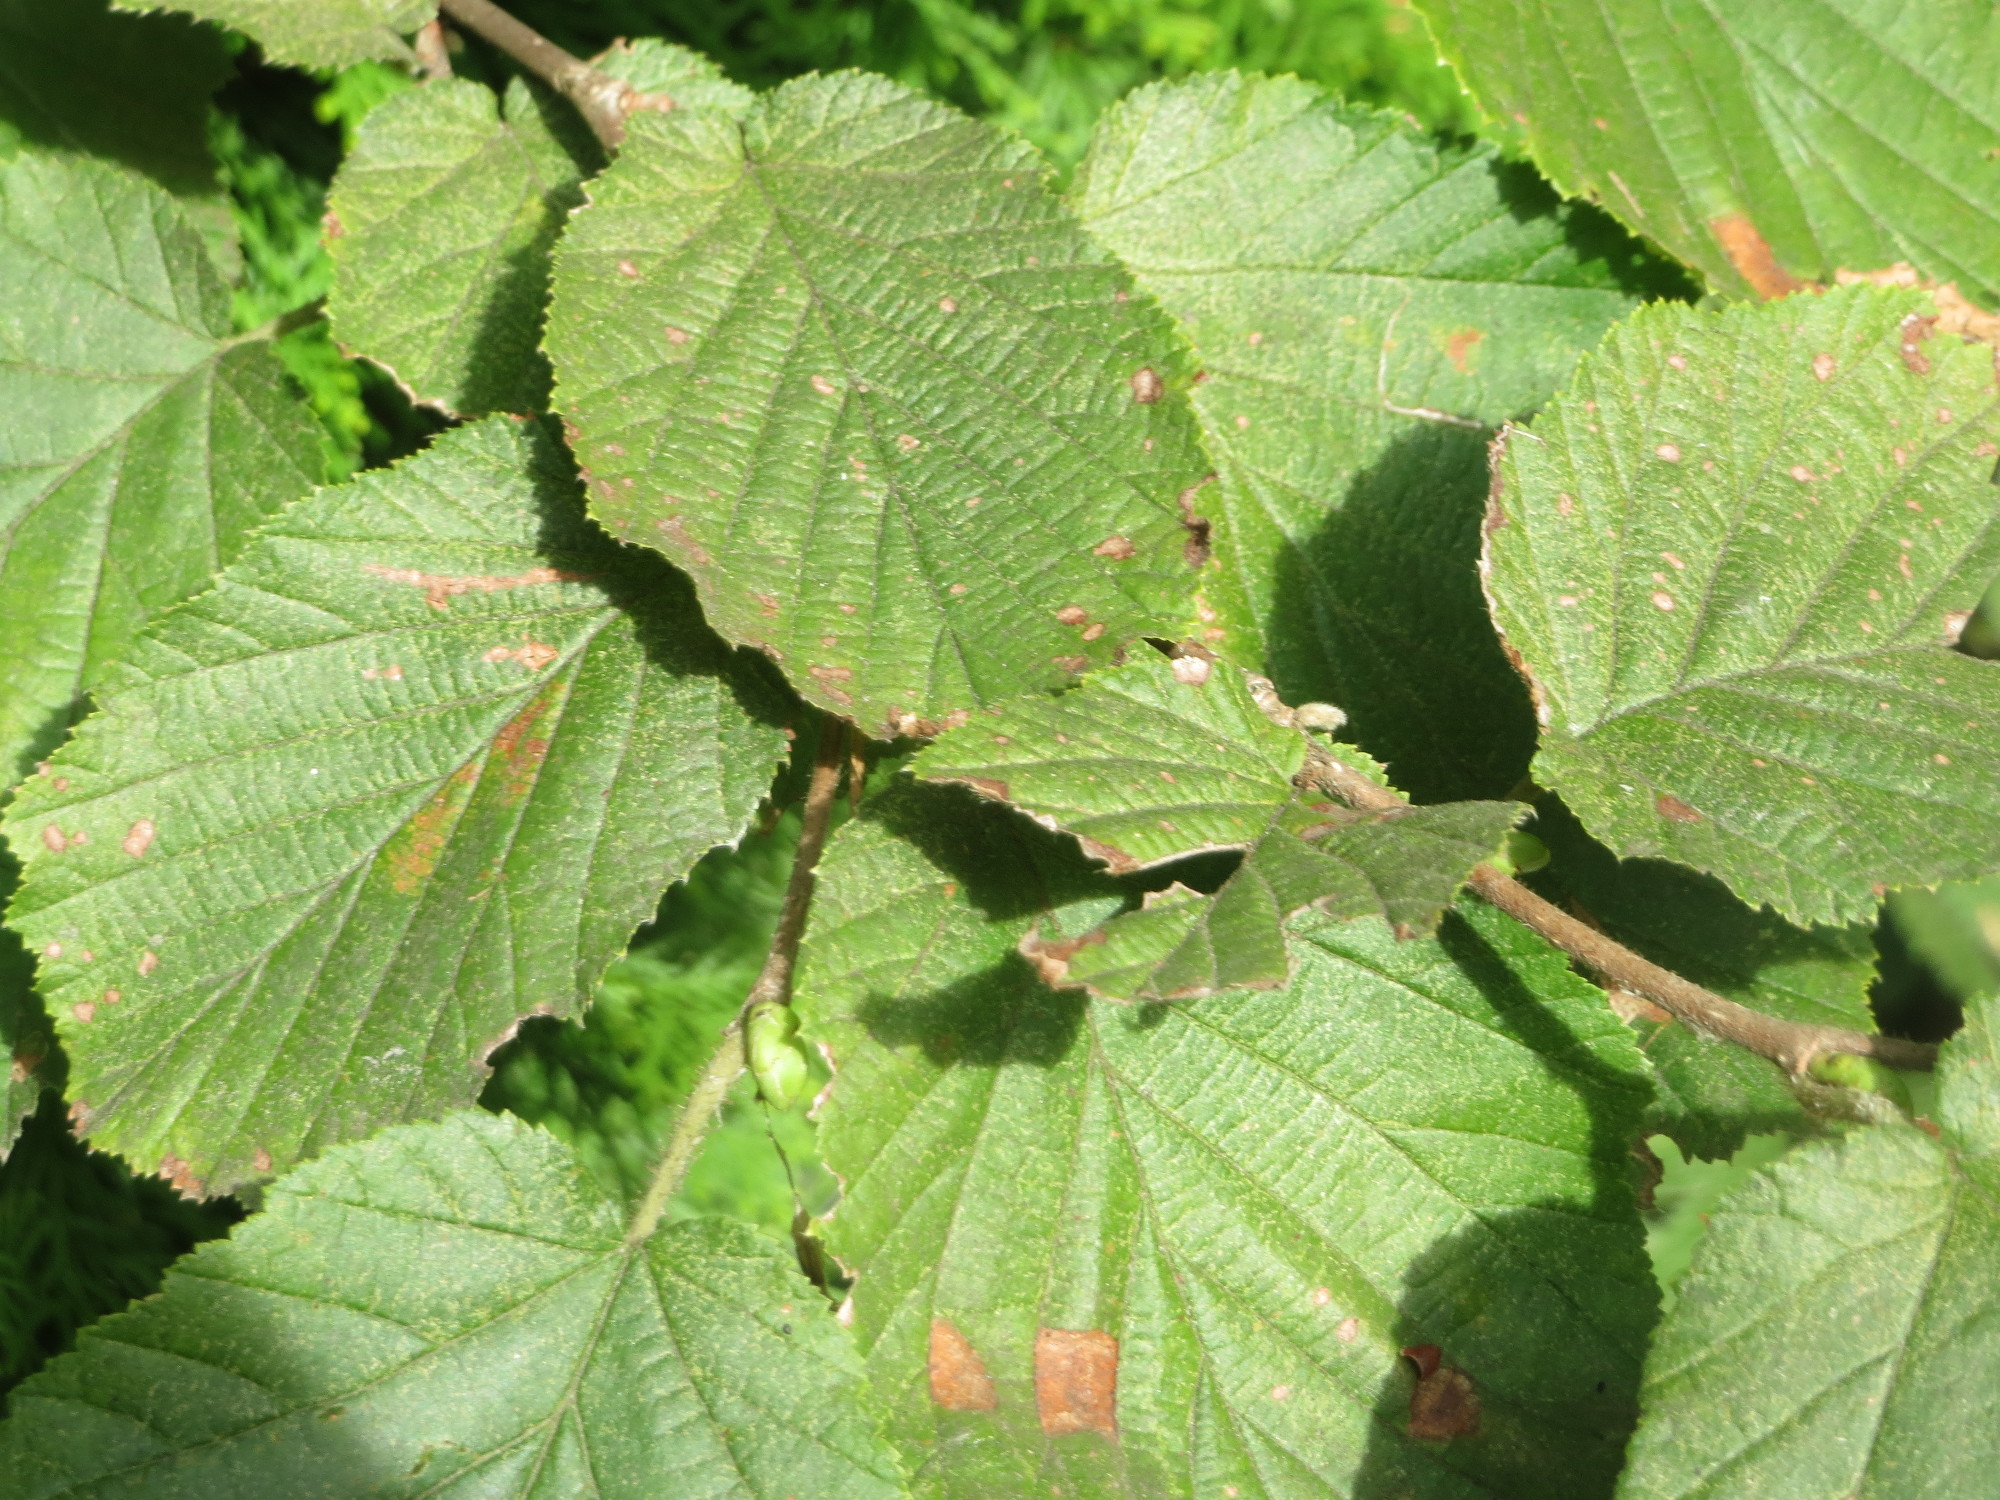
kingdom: Plantae
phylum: Tracheophyta
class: Magnoliopsida
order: Fagales
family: Betulaceae
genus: Corylus
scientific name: Corylus avellana
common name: European hazel
